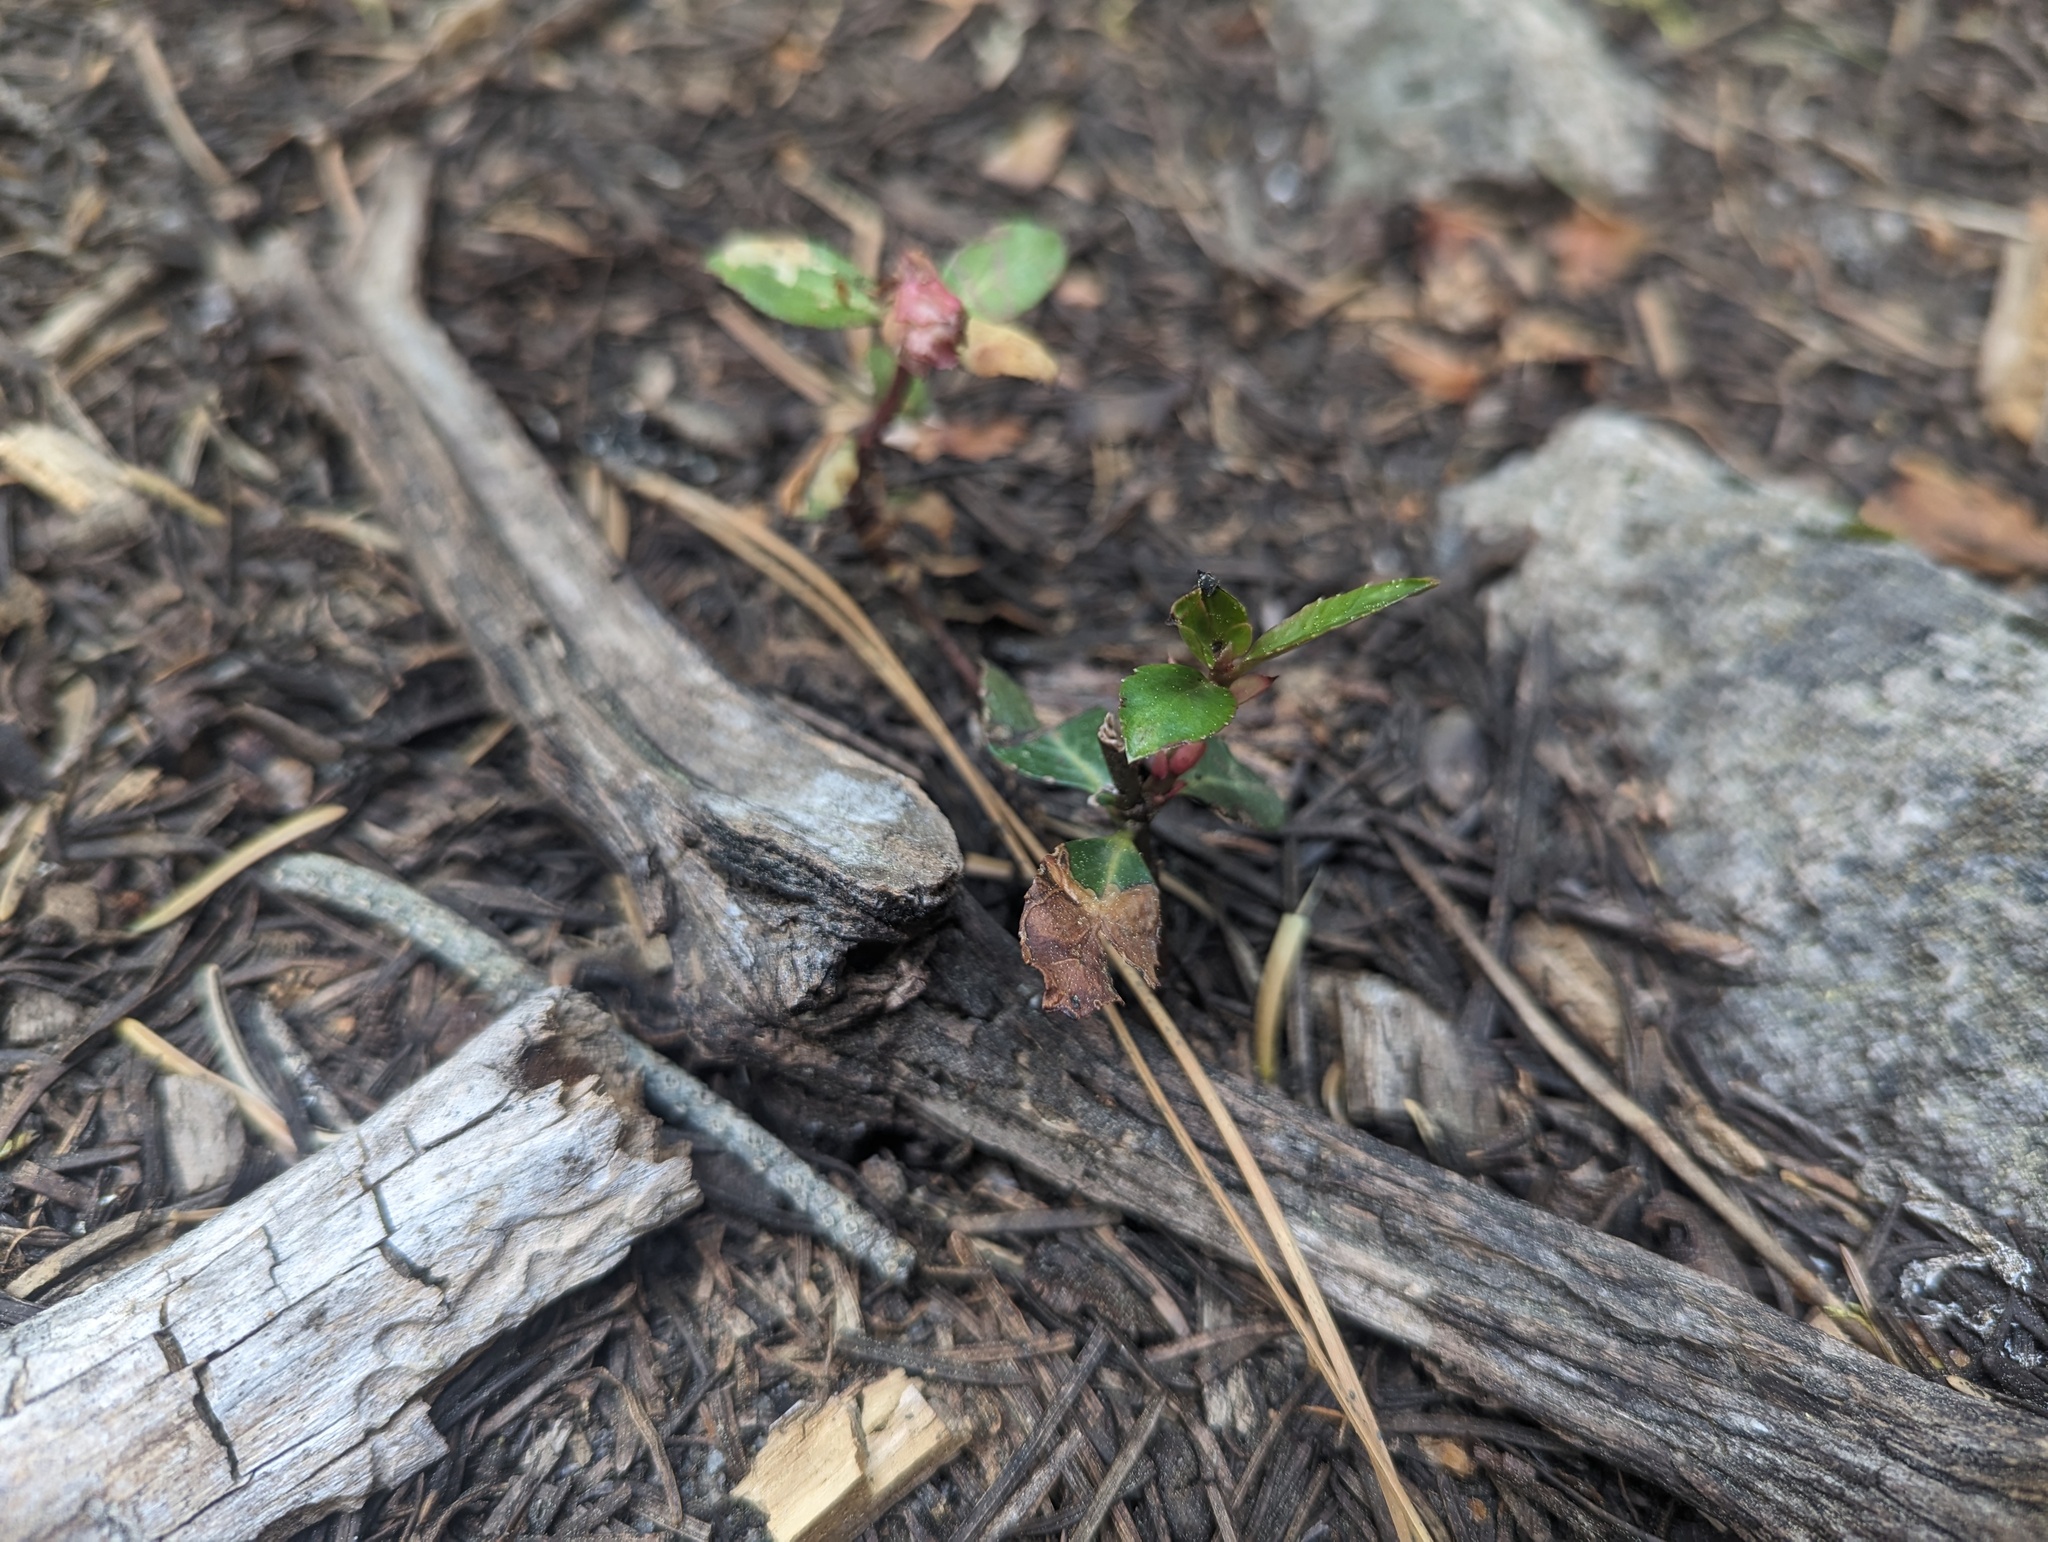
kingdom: Plantae
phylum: Tracheophyta
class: Magnoliopsida
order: Ericales
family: Ericaceae
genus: Chimaphila
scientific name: Chimaphila menziesii
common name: Menzies' pipsissewa
